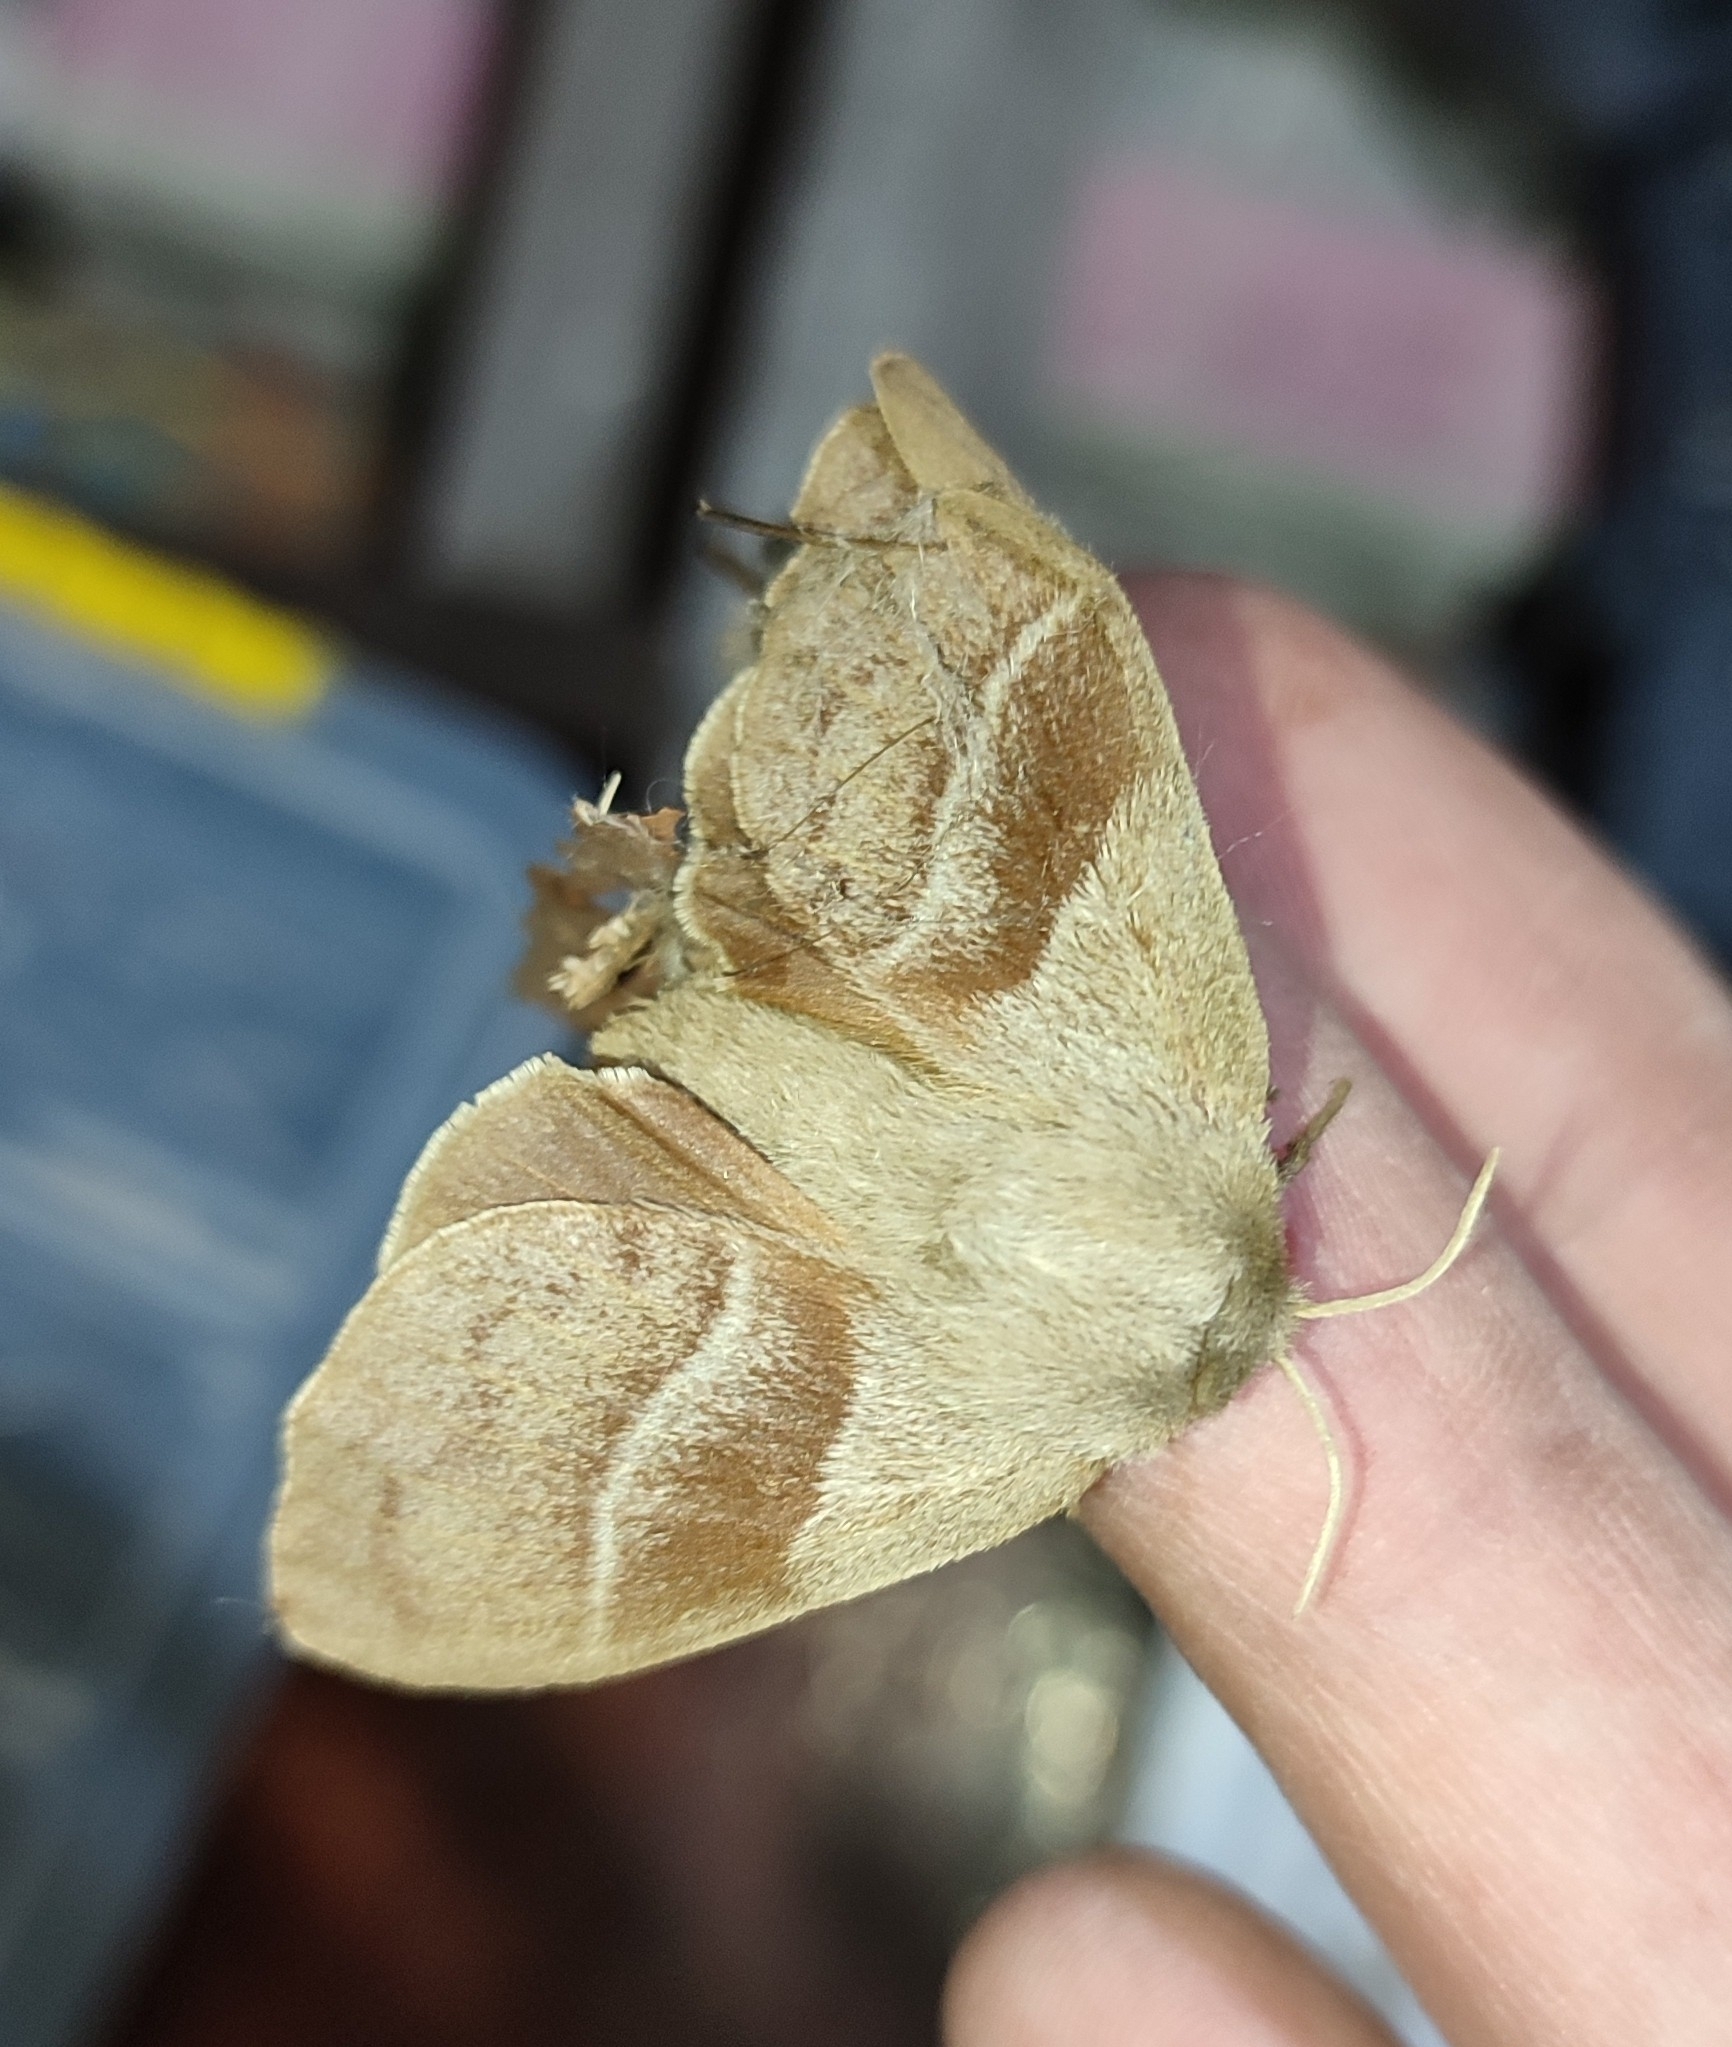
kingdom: Animalia
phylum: Arthropoda
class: Insecta
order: Lepidoptera
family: Lasiocampidae
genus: Macrothylacia
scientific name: Macrothylacia rubi
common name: Fox moth
